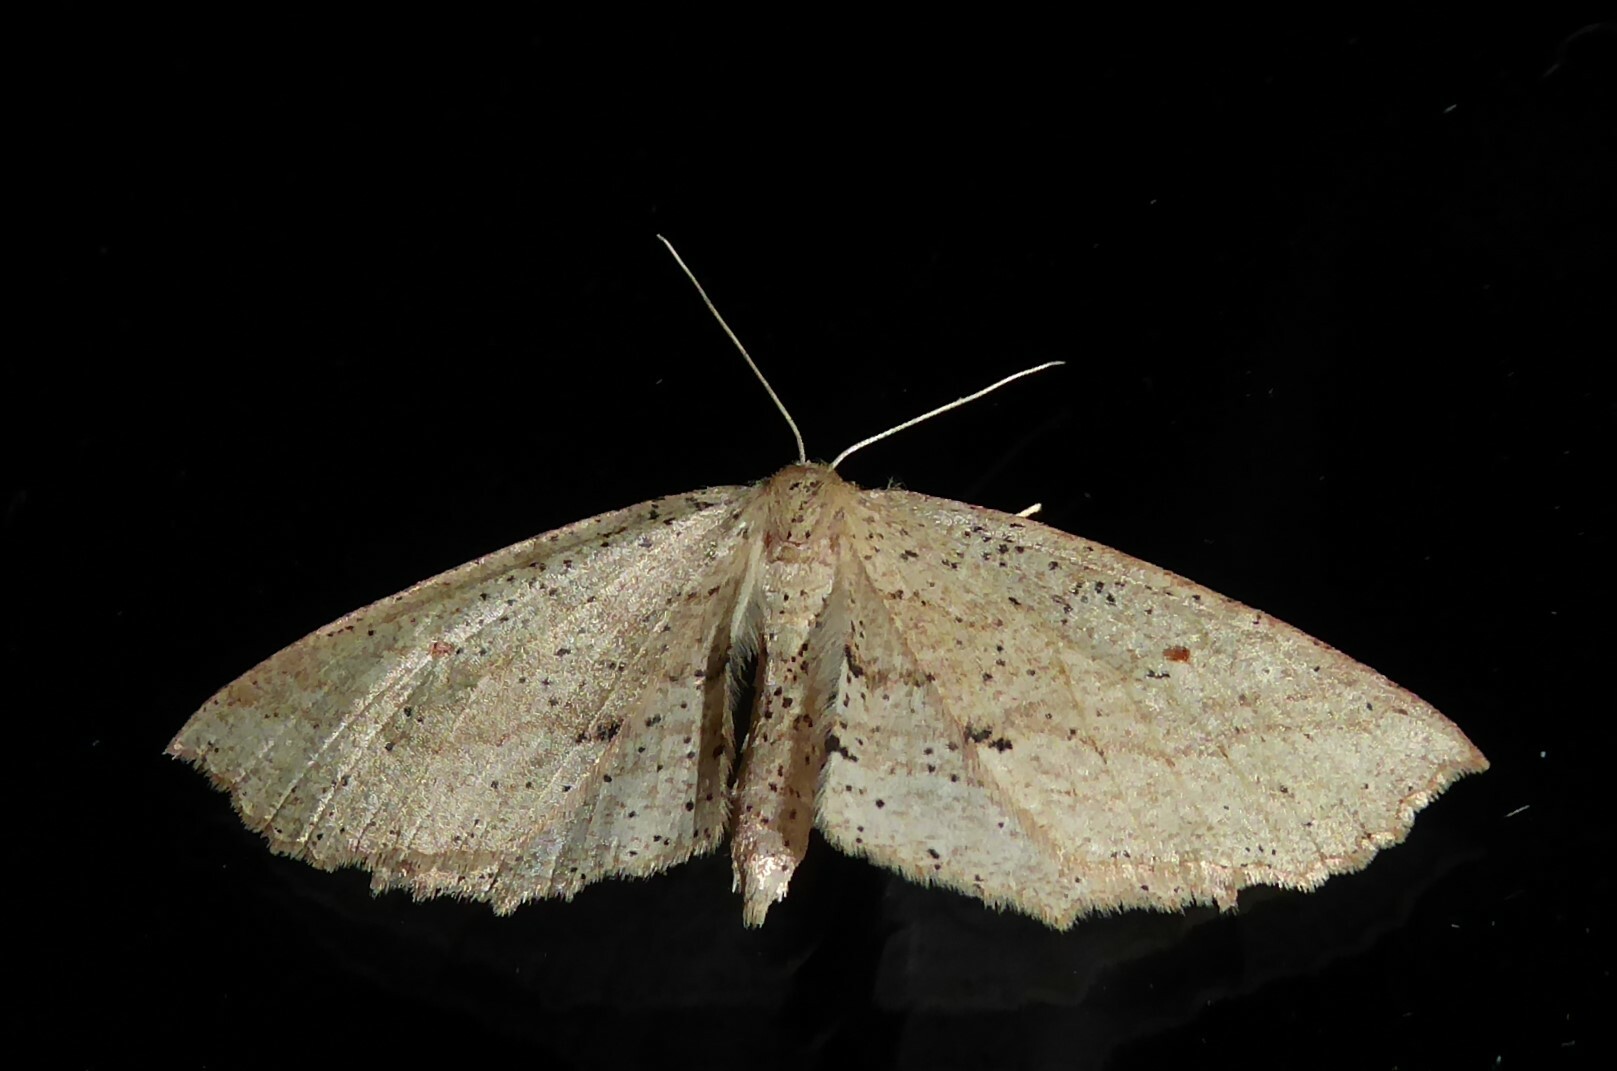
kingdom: Animalia
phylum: Arthropoda
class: Insecta
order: Lepidoptera
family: Geometridae
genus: Xyridacma
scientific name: Xyridacma veronicae
